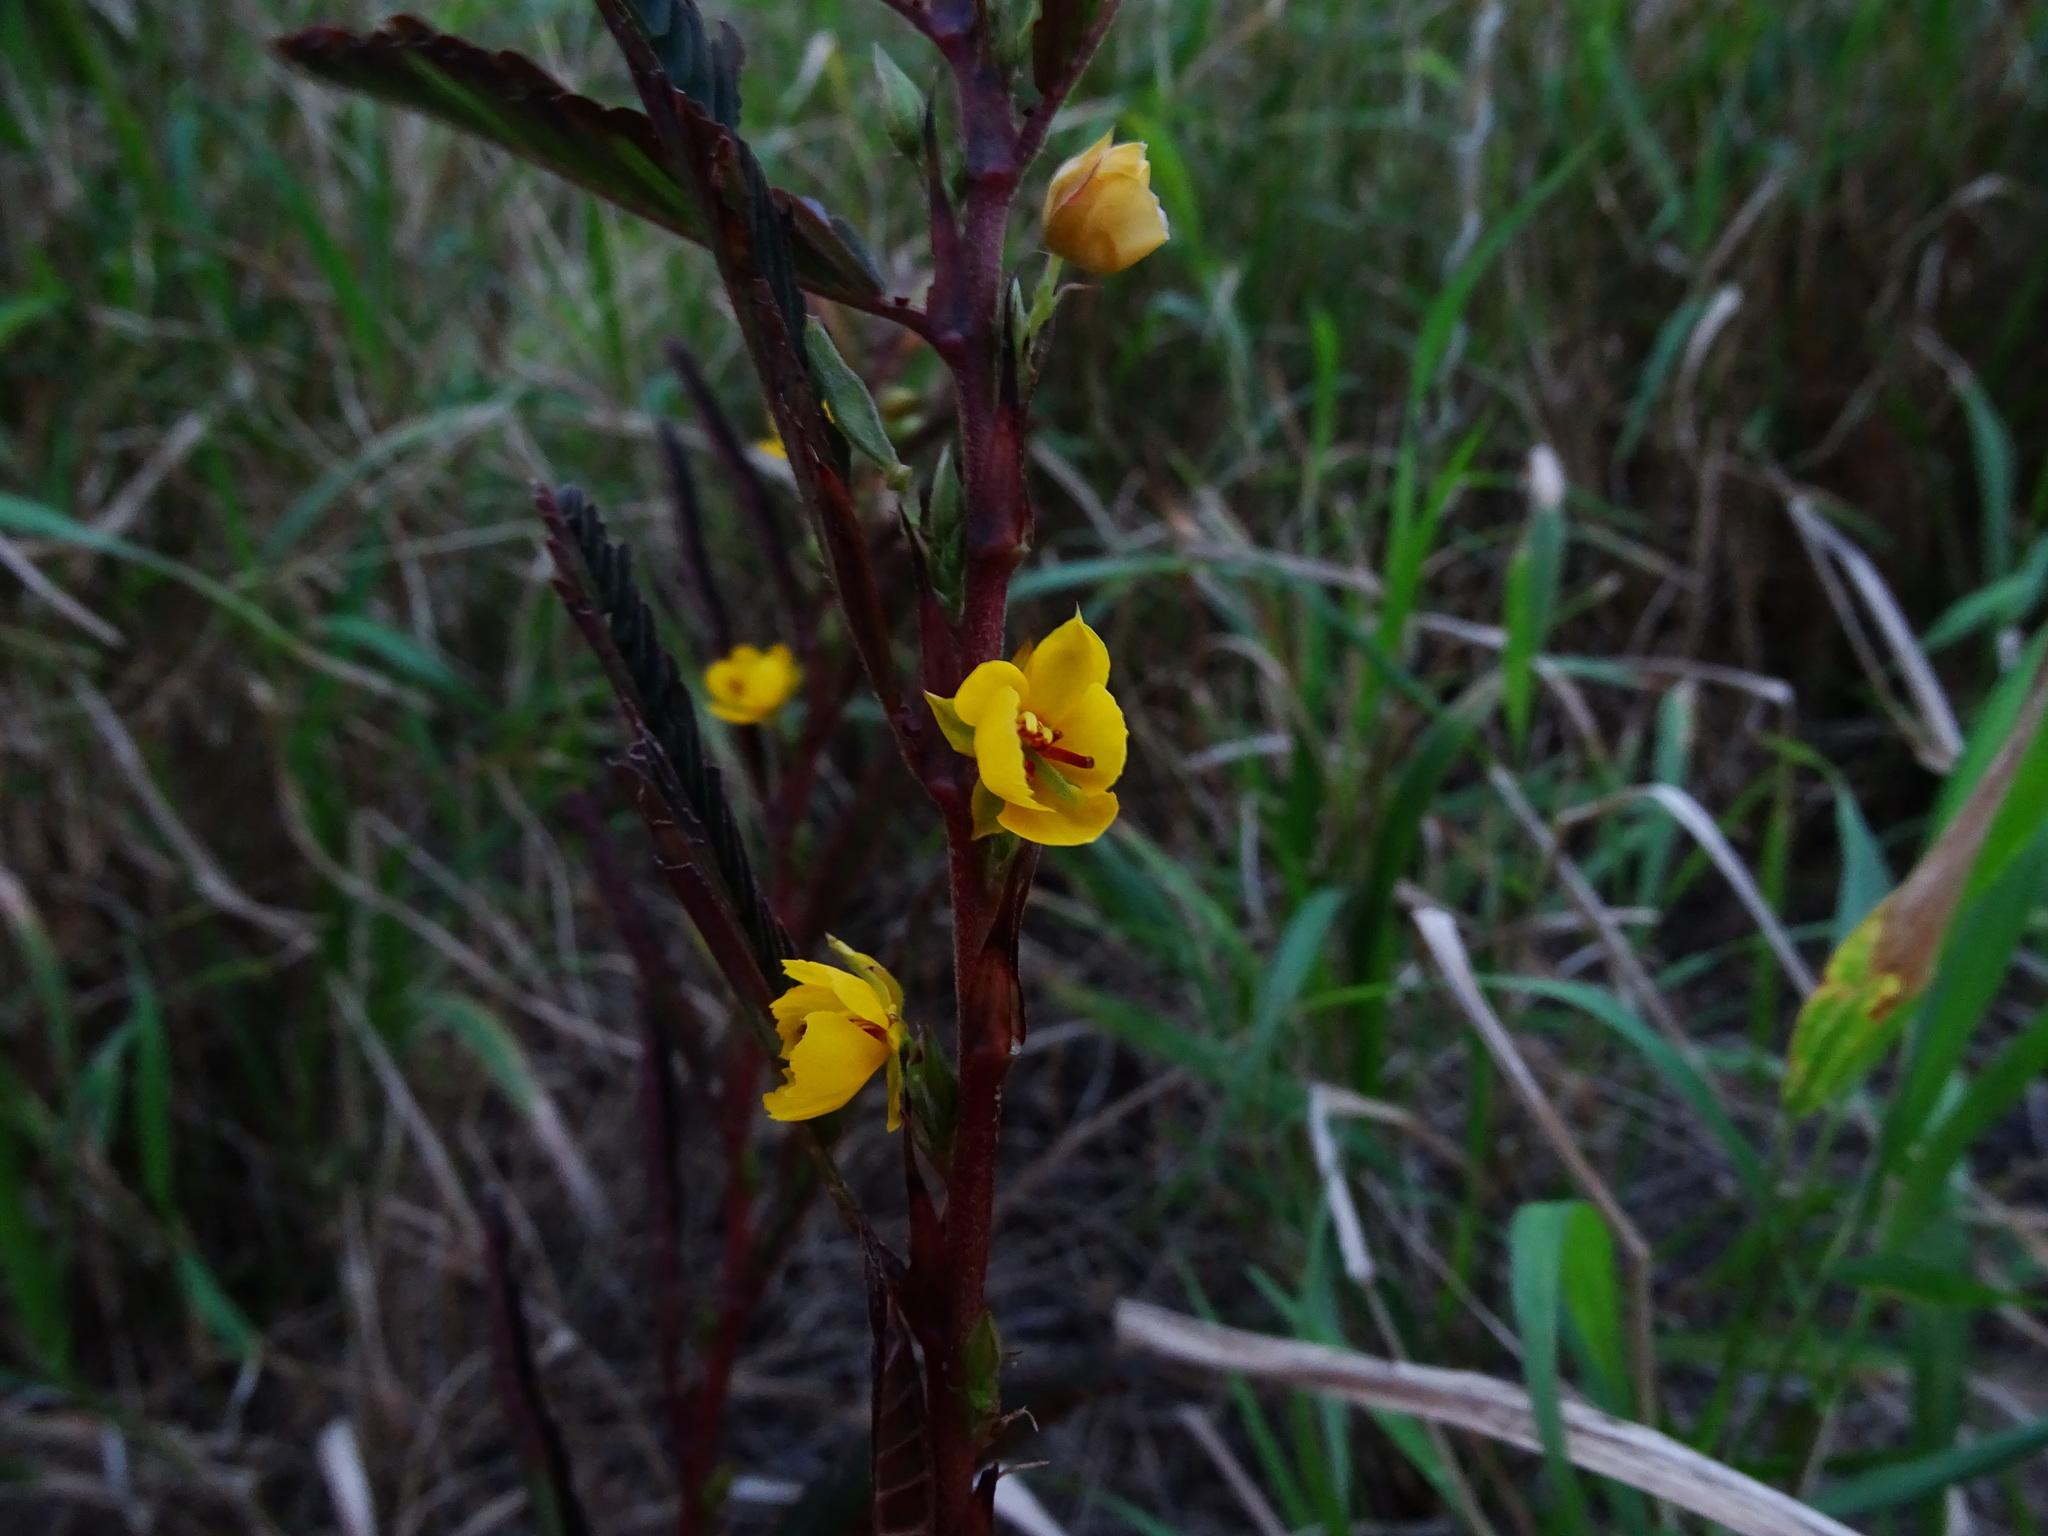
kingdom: Plantae
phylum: Tracheophyta
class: Magnoliopsida
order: Fabales
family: Fabaceae
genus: Chamaecrista
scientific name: Chamaecrista nictitans
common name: Sensitive cassia
